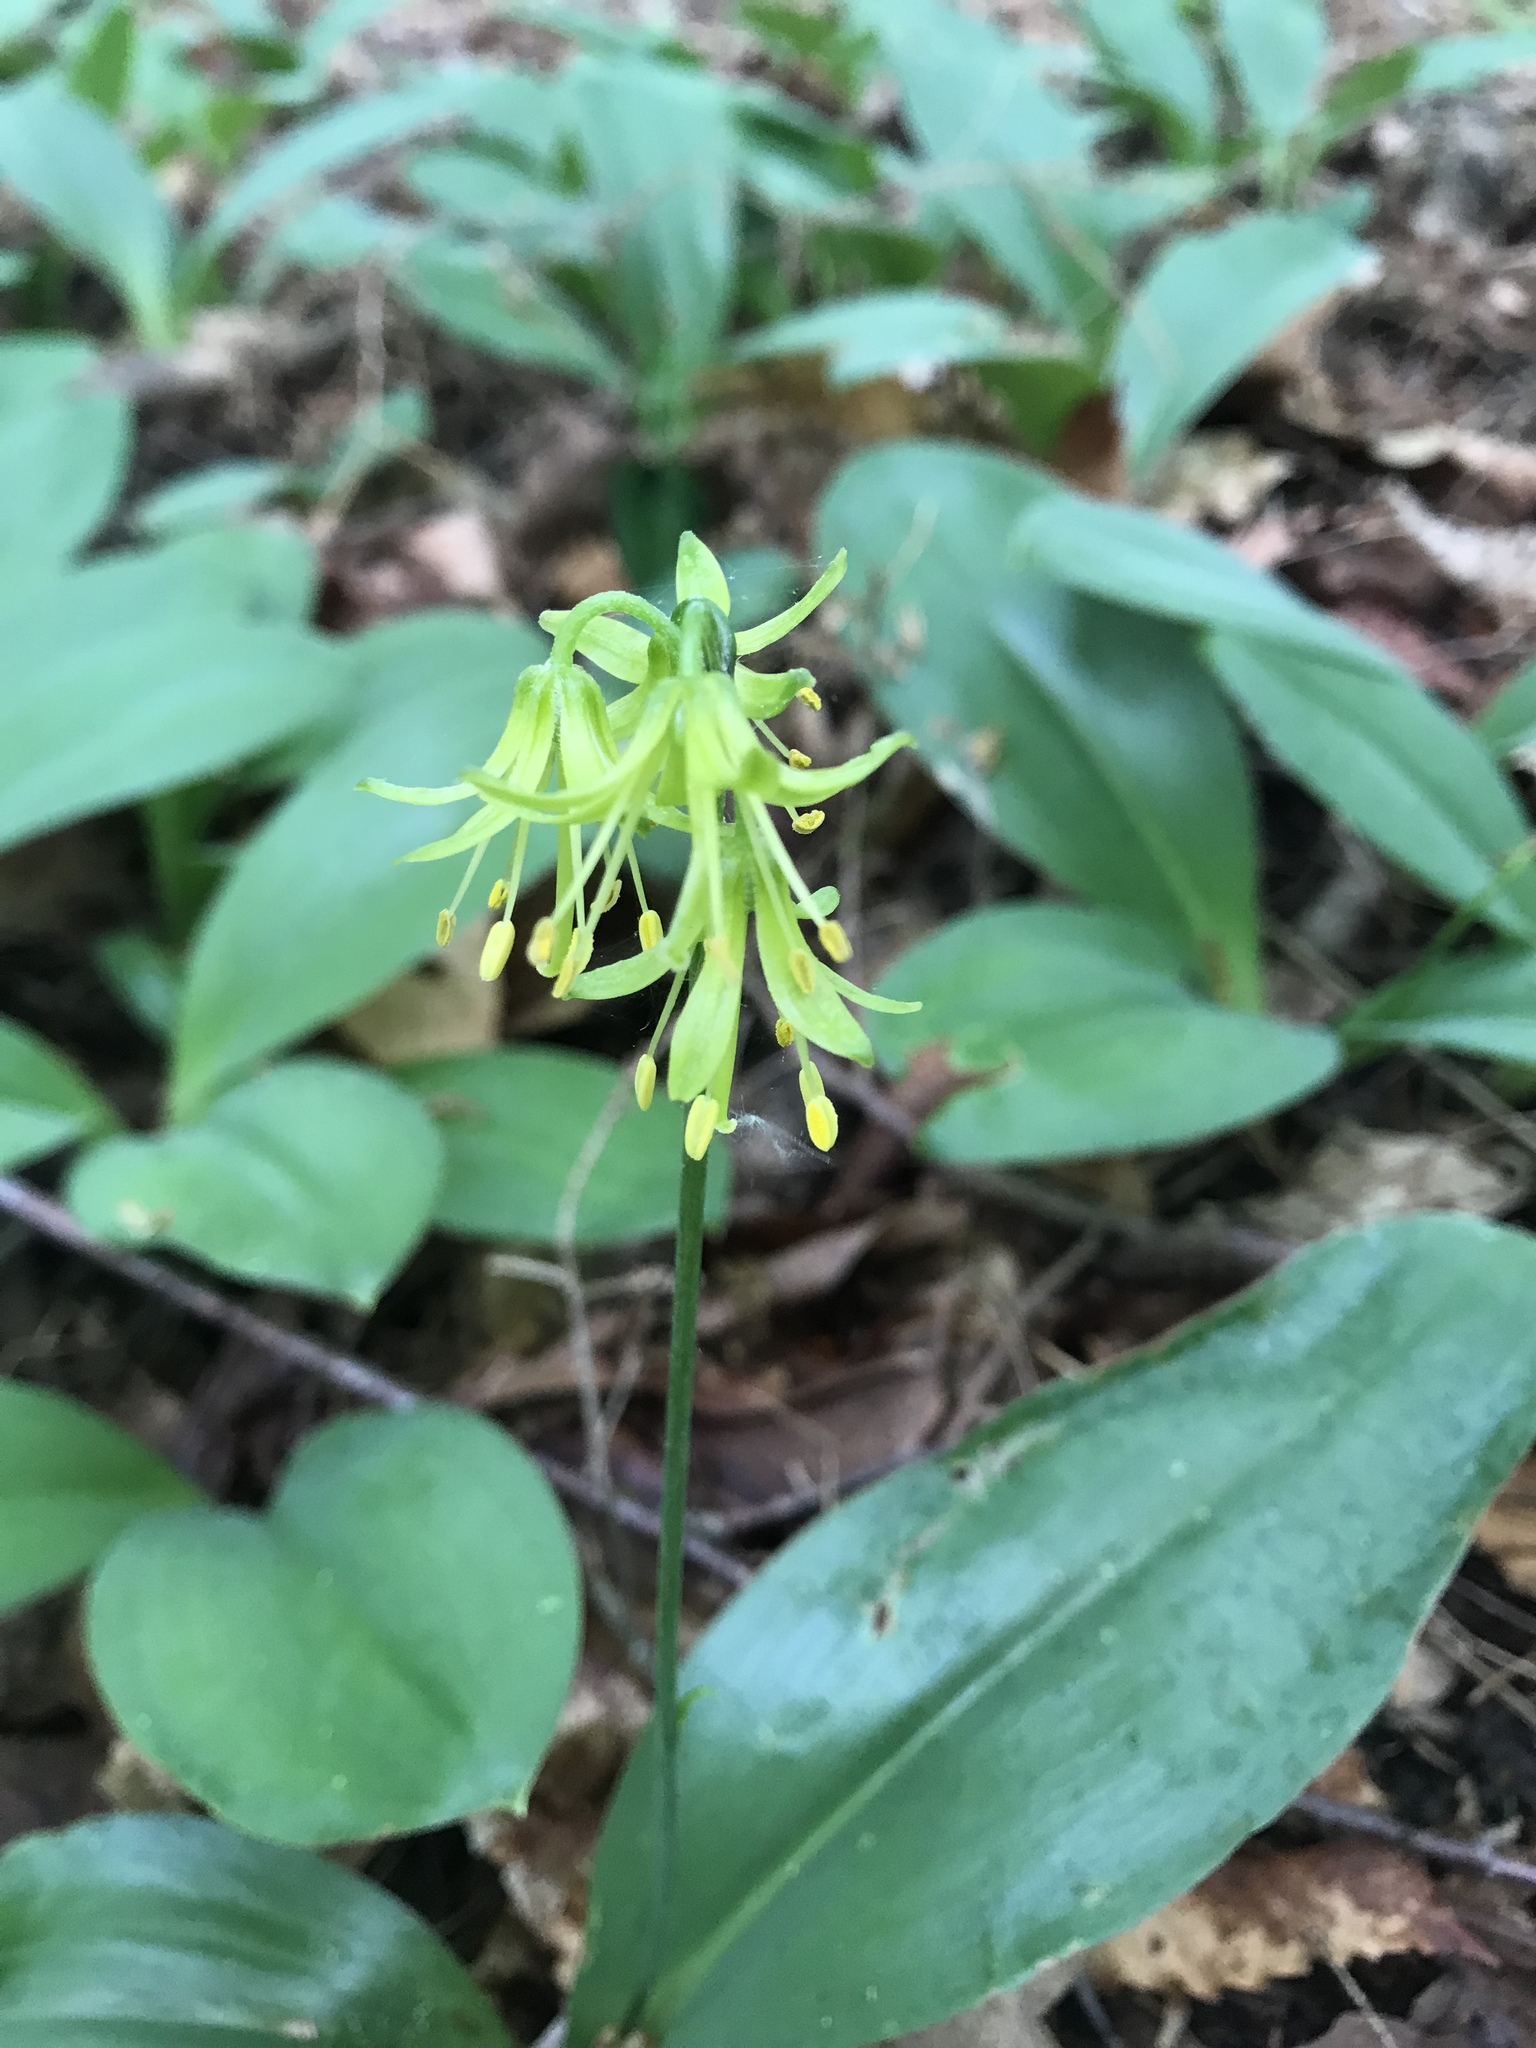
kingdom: Plantae
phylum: Tracheophyta
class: Liliopsida
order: Liliales
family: Liliaceae
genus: Clintonia
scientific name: Clintonia borealis
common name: Yellow clintonia
